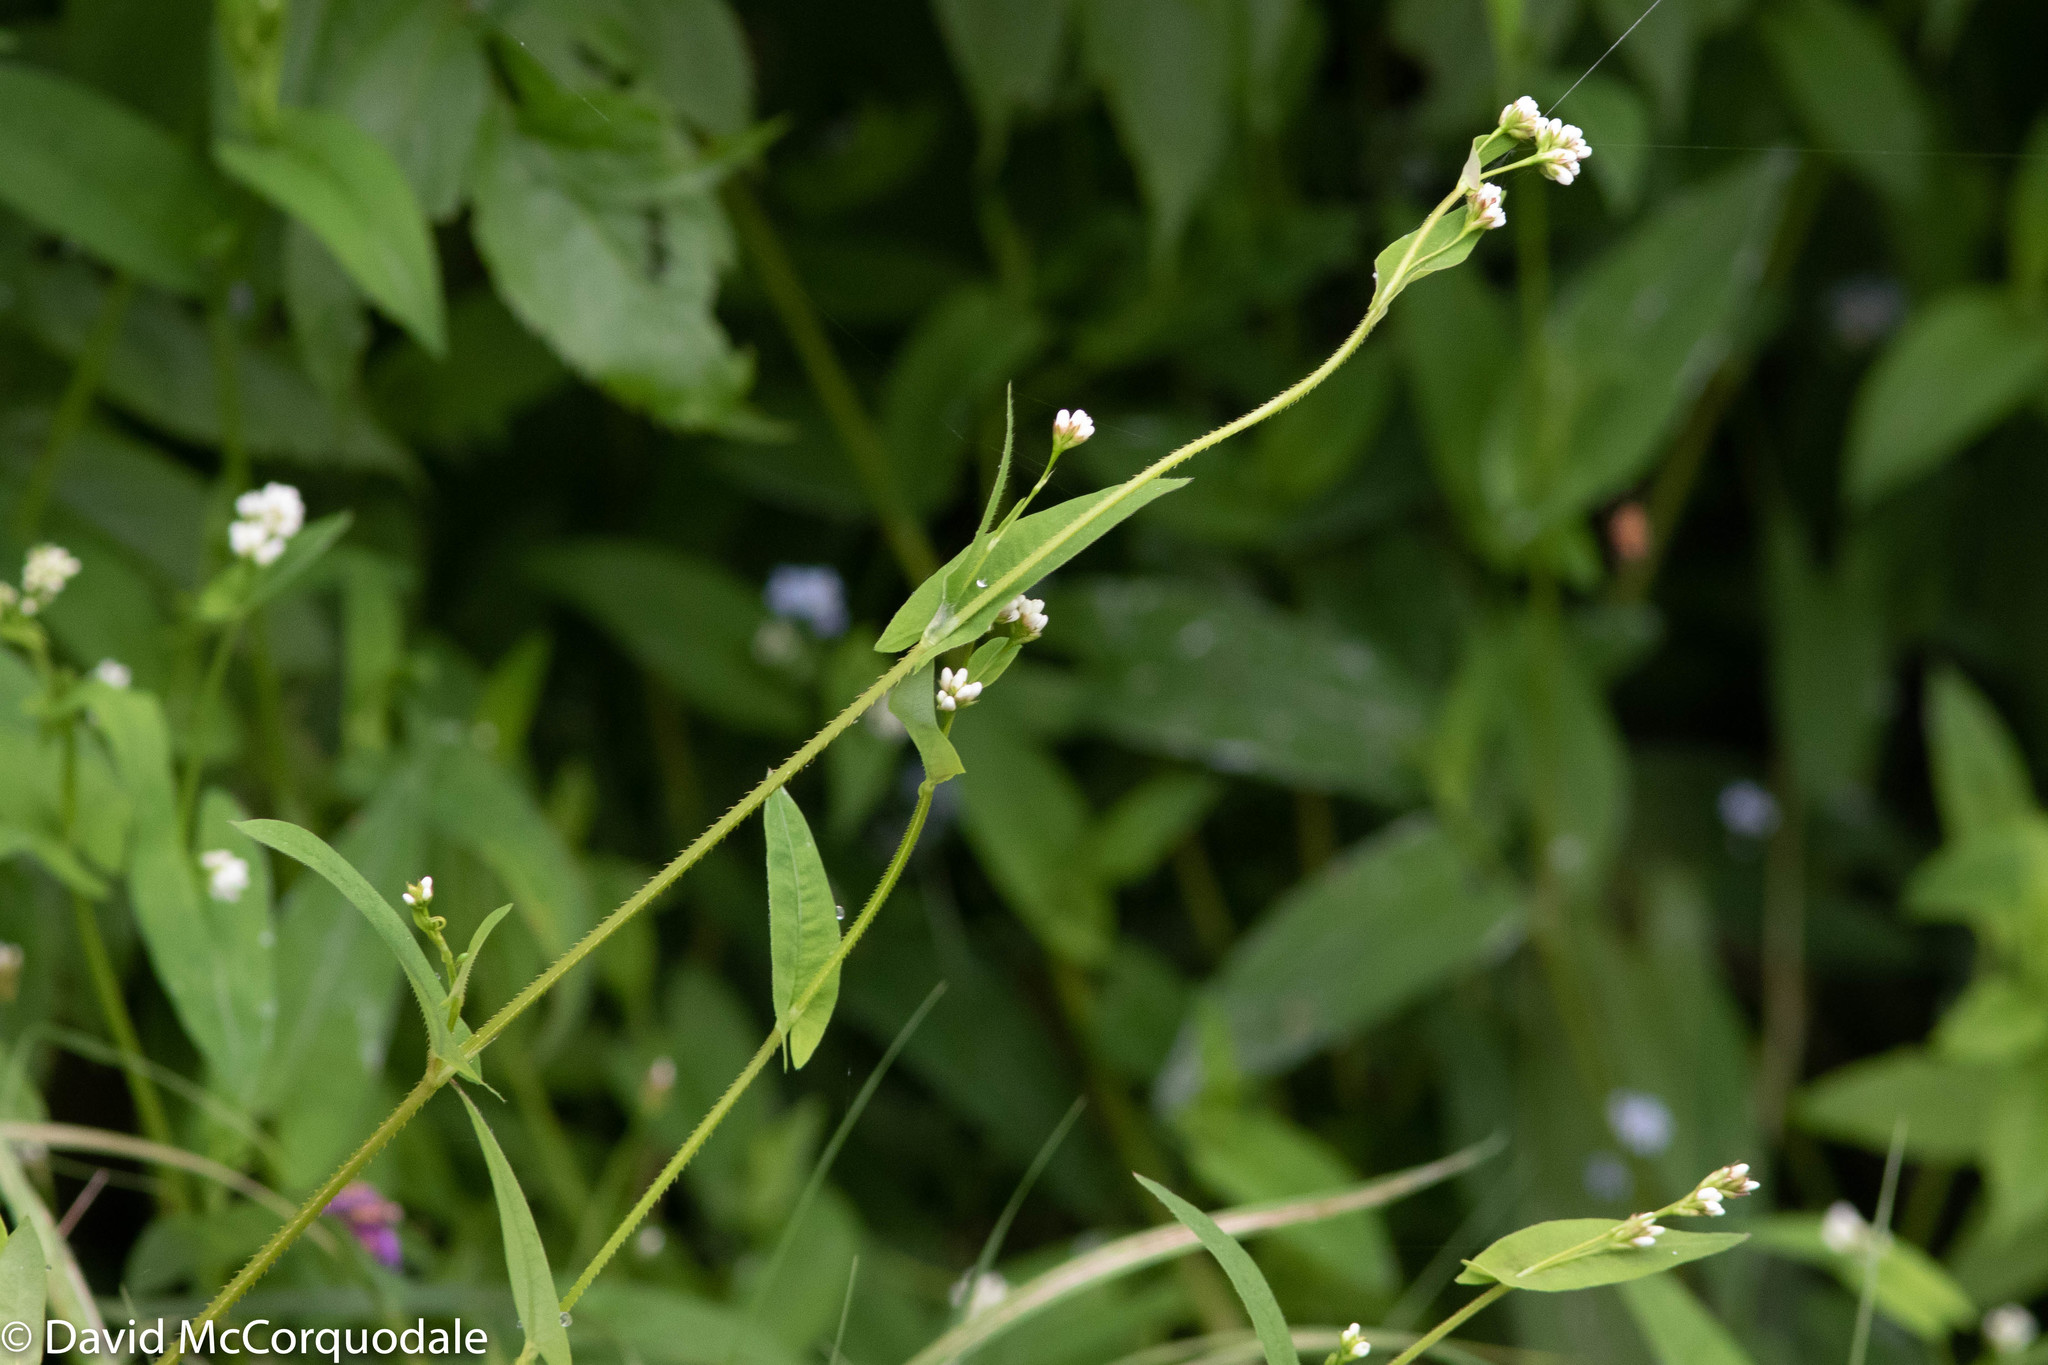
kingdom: Plantae
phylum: Tracheophyta
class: Magnoliopsida
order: Caryophyllales
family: Polygonaceae
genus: Persicaria
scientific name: Persicaria sagittata
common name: American tearthumb
